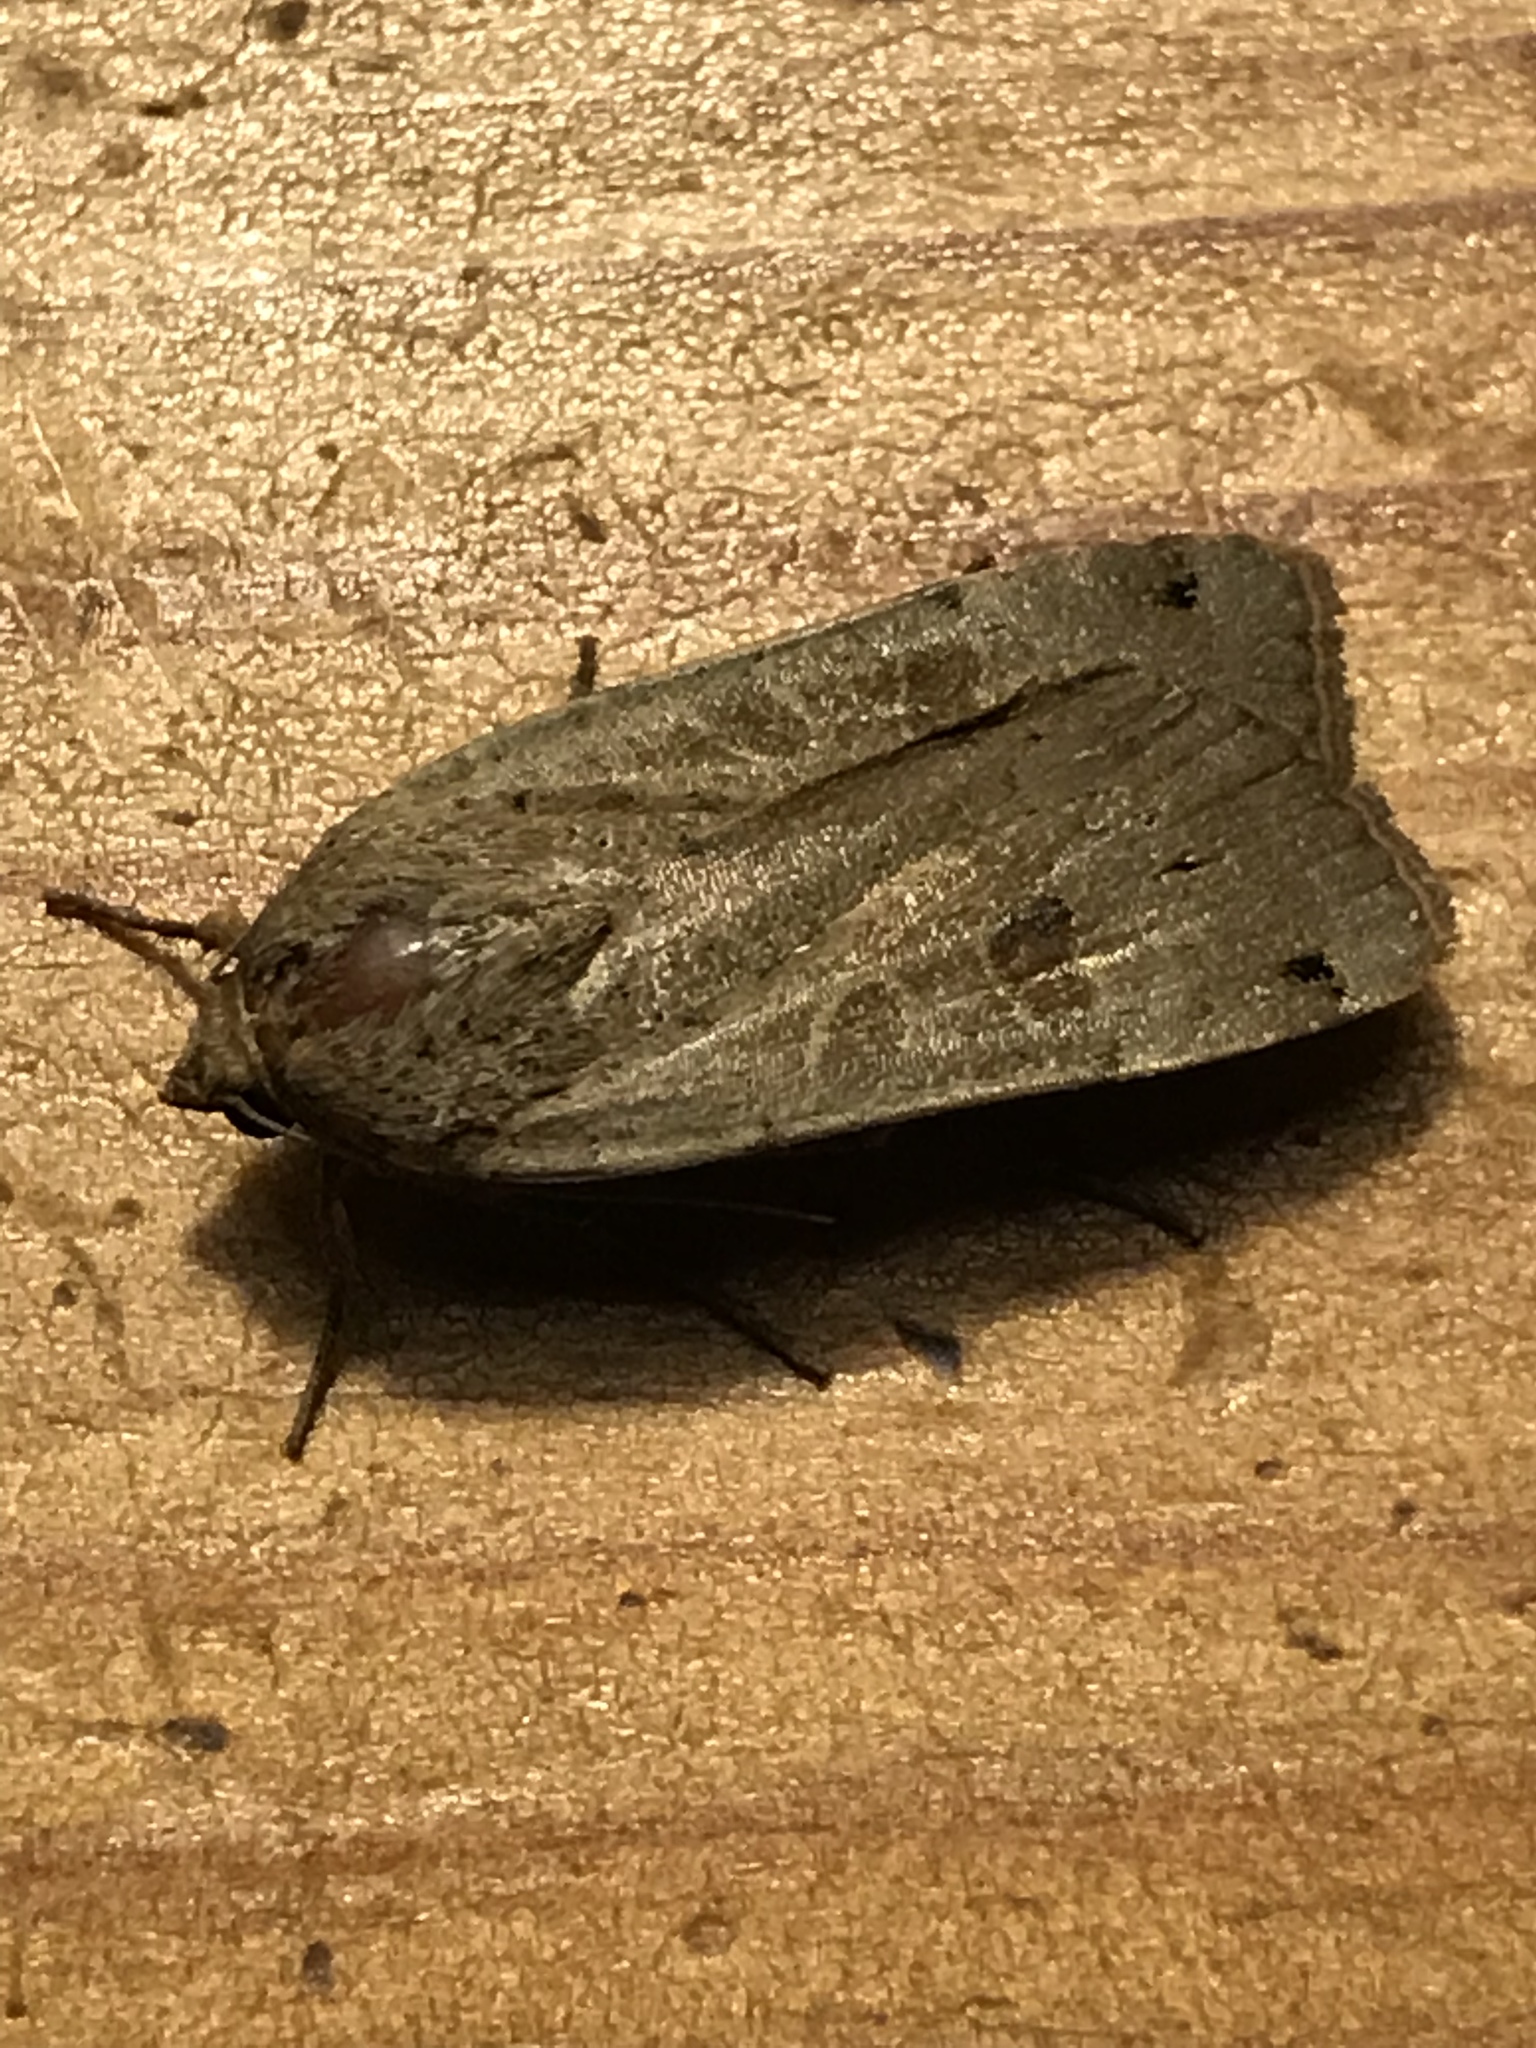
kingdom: Animalia
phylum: Arthropoda
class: Insecta
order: Lepidoptera
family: Noctuidae
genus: Noctua
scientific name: Noctua pronuba
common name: Large yellow underwing
